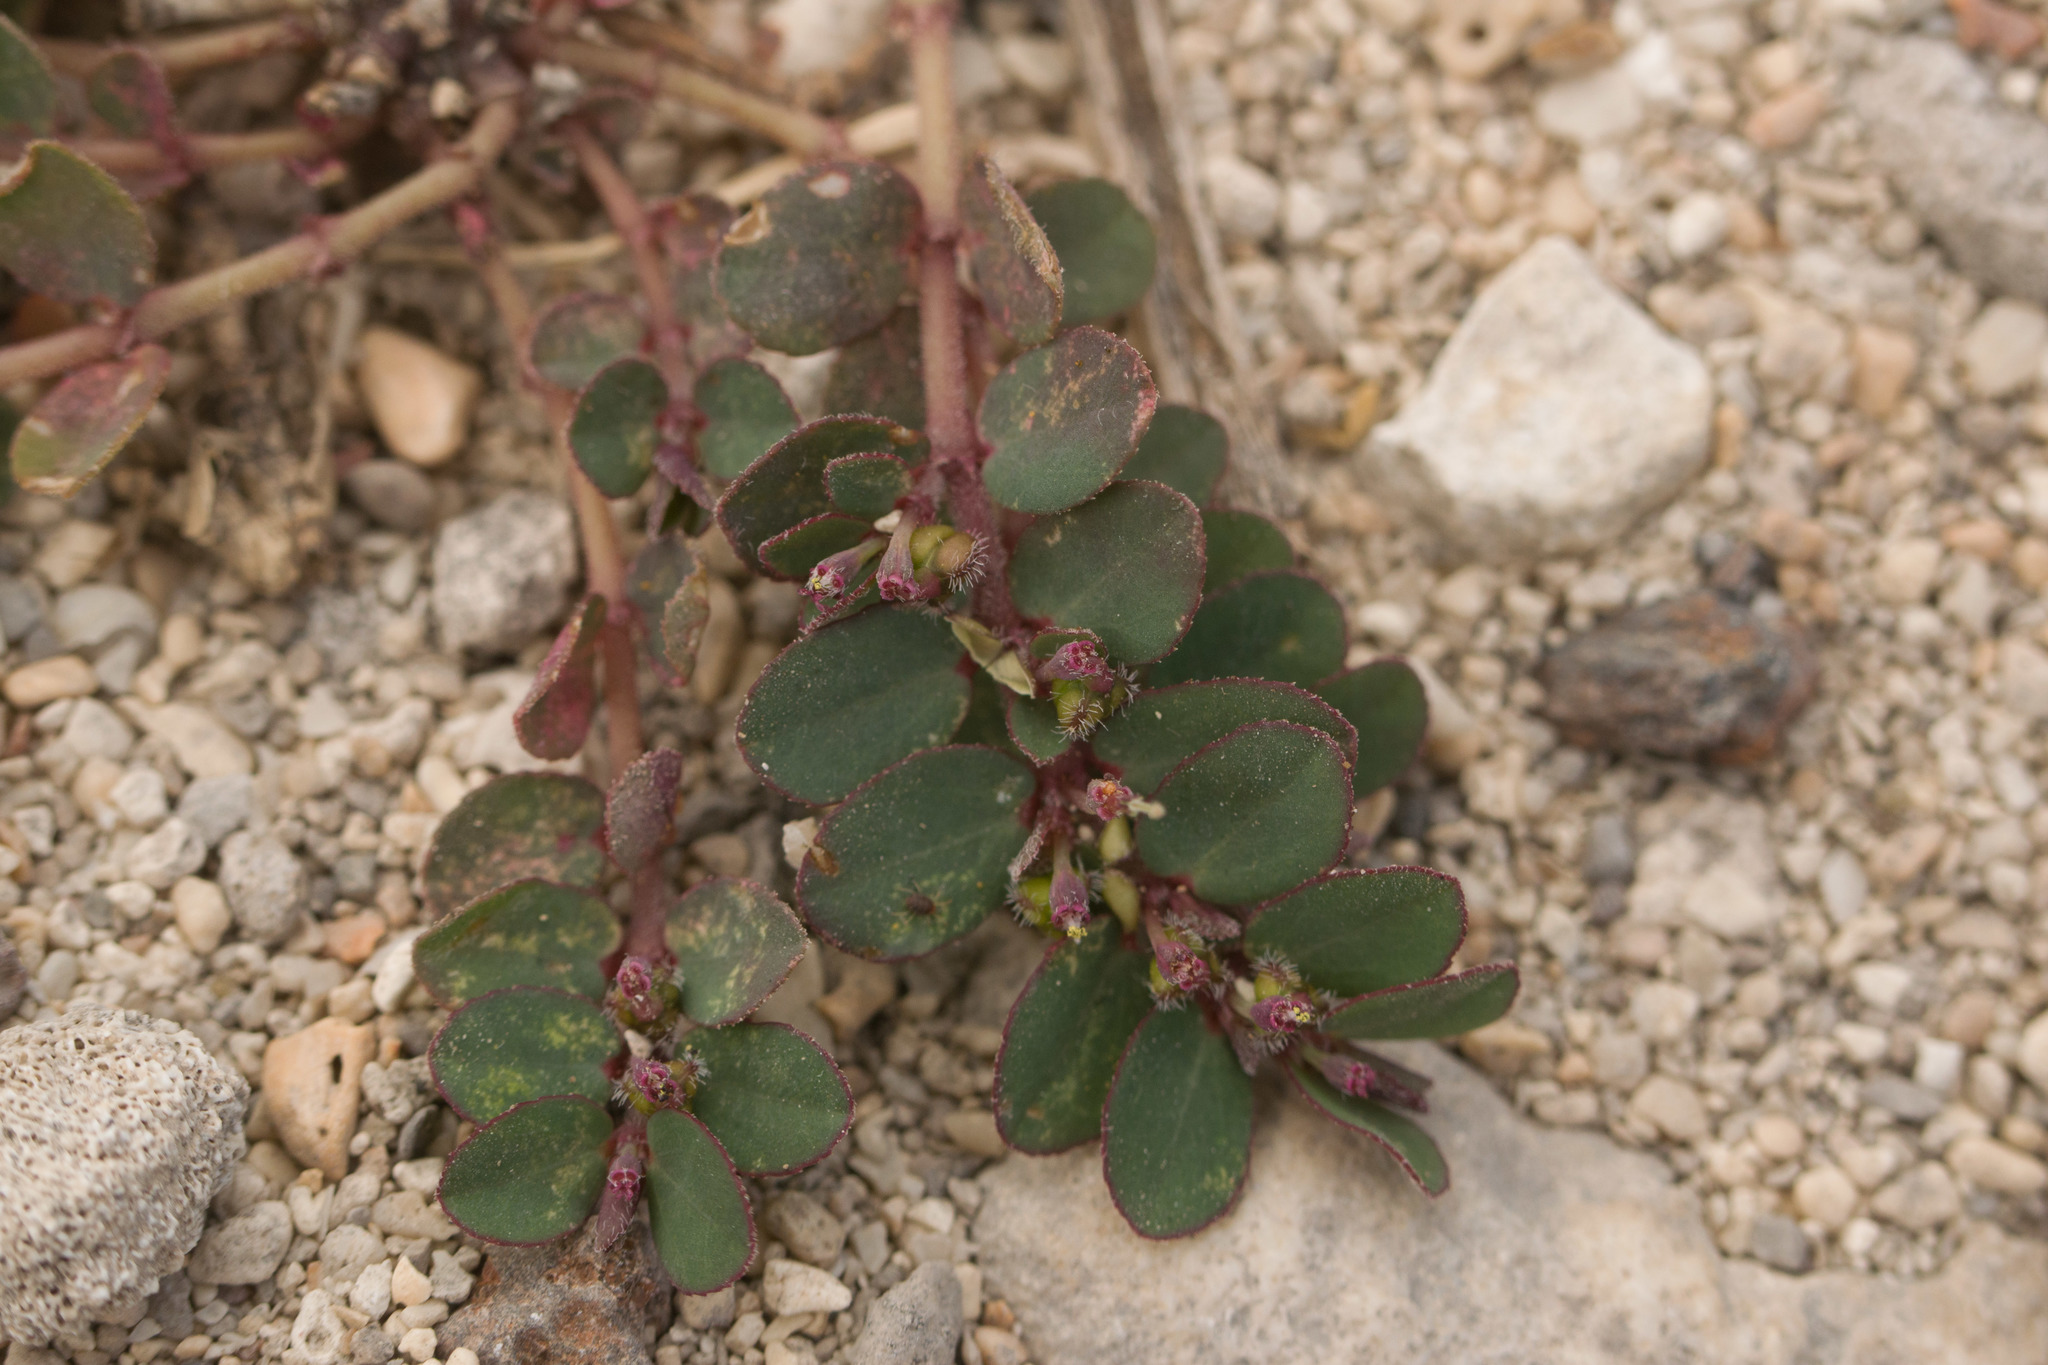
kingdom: Plantae
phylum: Tracheophyta
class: Magnoliopsida
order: Malpighiales
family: Euphorbiaceae
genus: Euphorbia
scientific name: Euphorbia prostrata
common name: Prostrate sandmat
